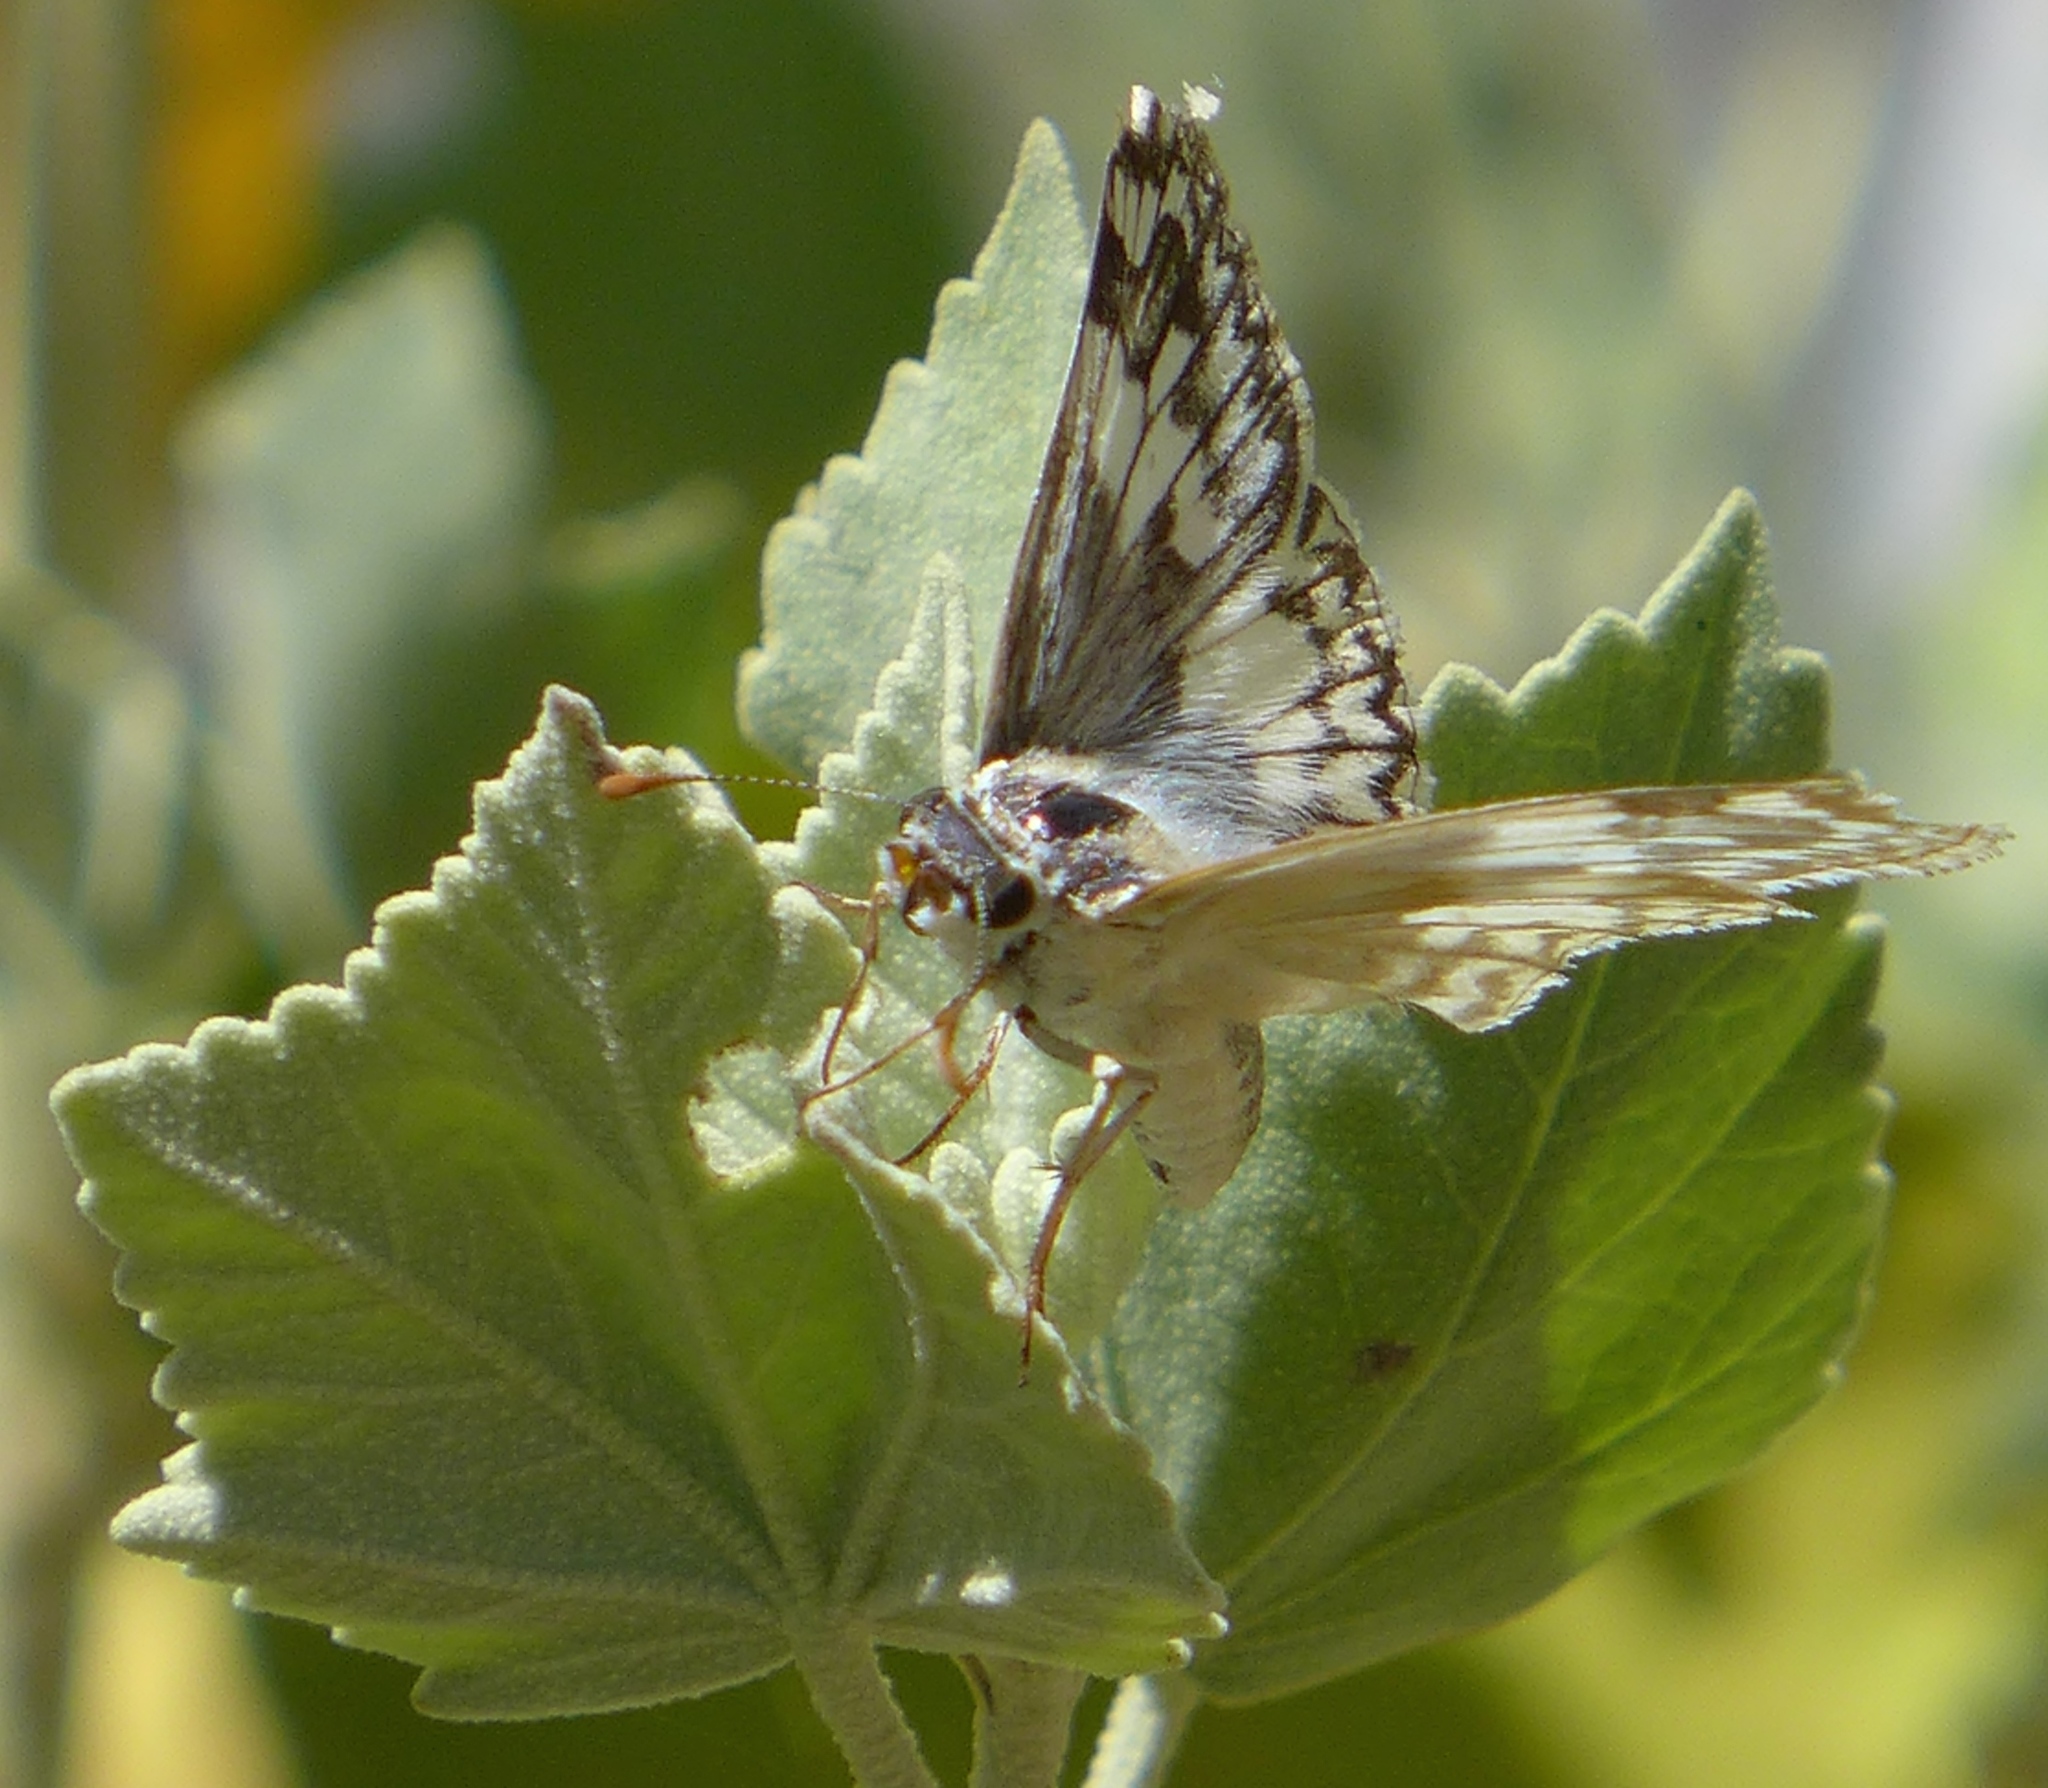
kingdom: Animalia
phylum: Arthropoda
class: Insecta
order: Lepidoptera
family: Hesperiidae
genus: Heliopetes
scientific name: Heliopetes ericetorum
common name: Northern white-skipper
